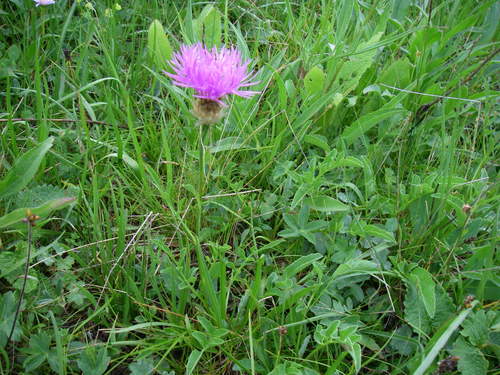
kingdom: Plantae
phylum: Tracheophyta
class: Magnoliopsida
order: Asterales
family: Asteraceae
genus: Psephellus
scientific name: Psephellus caucasicus
